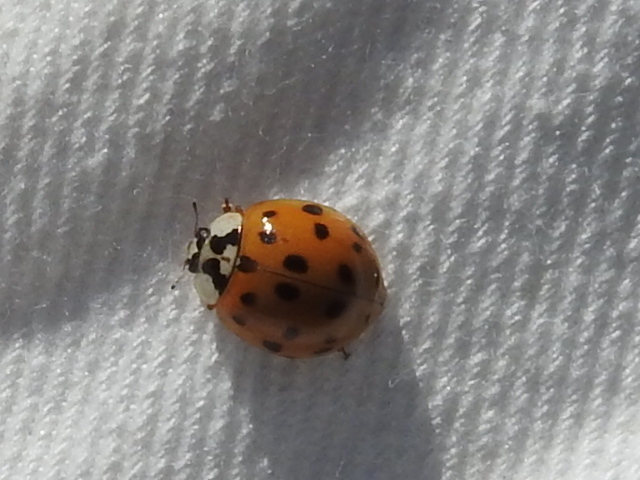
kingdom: Animalia
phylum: Arthropoda
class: Insecta
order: Coleoptera
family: Coccinellidae
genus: Harmonia
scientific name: Harmonia axyridis
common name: Harlequin ladybird
